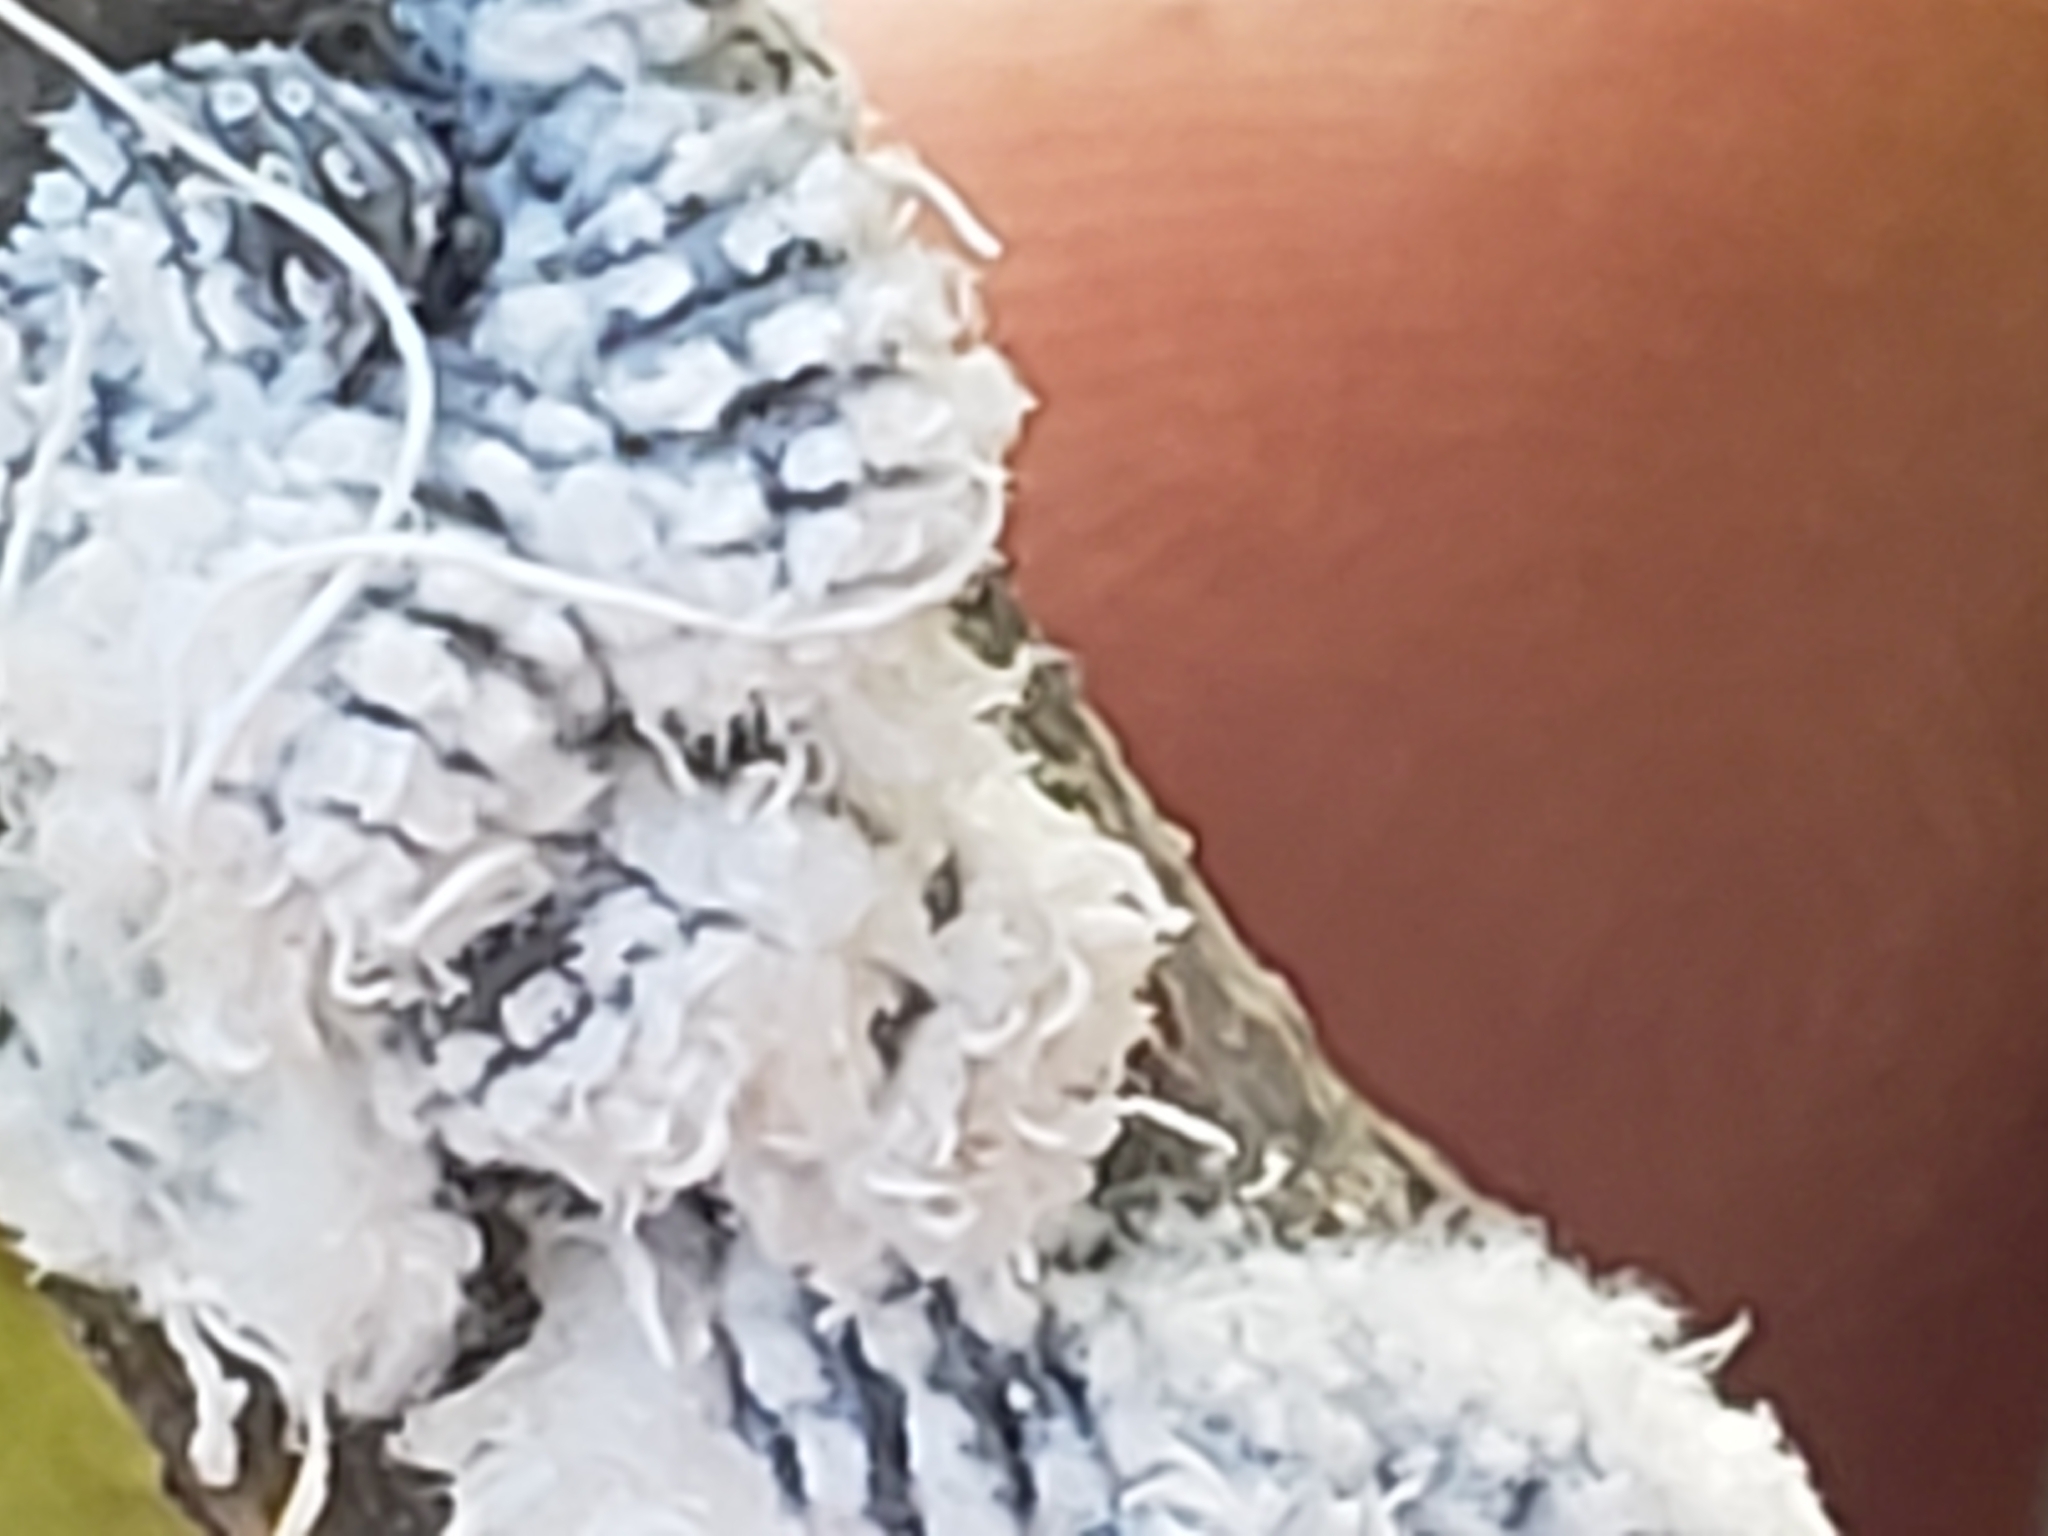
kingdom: Animalia
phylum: Arthropoda
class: Insecta
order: Hemiptera
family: Aphididae
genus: Prociphilus
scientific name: Prociphilus tessellatus
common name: Woolly alder aphid
